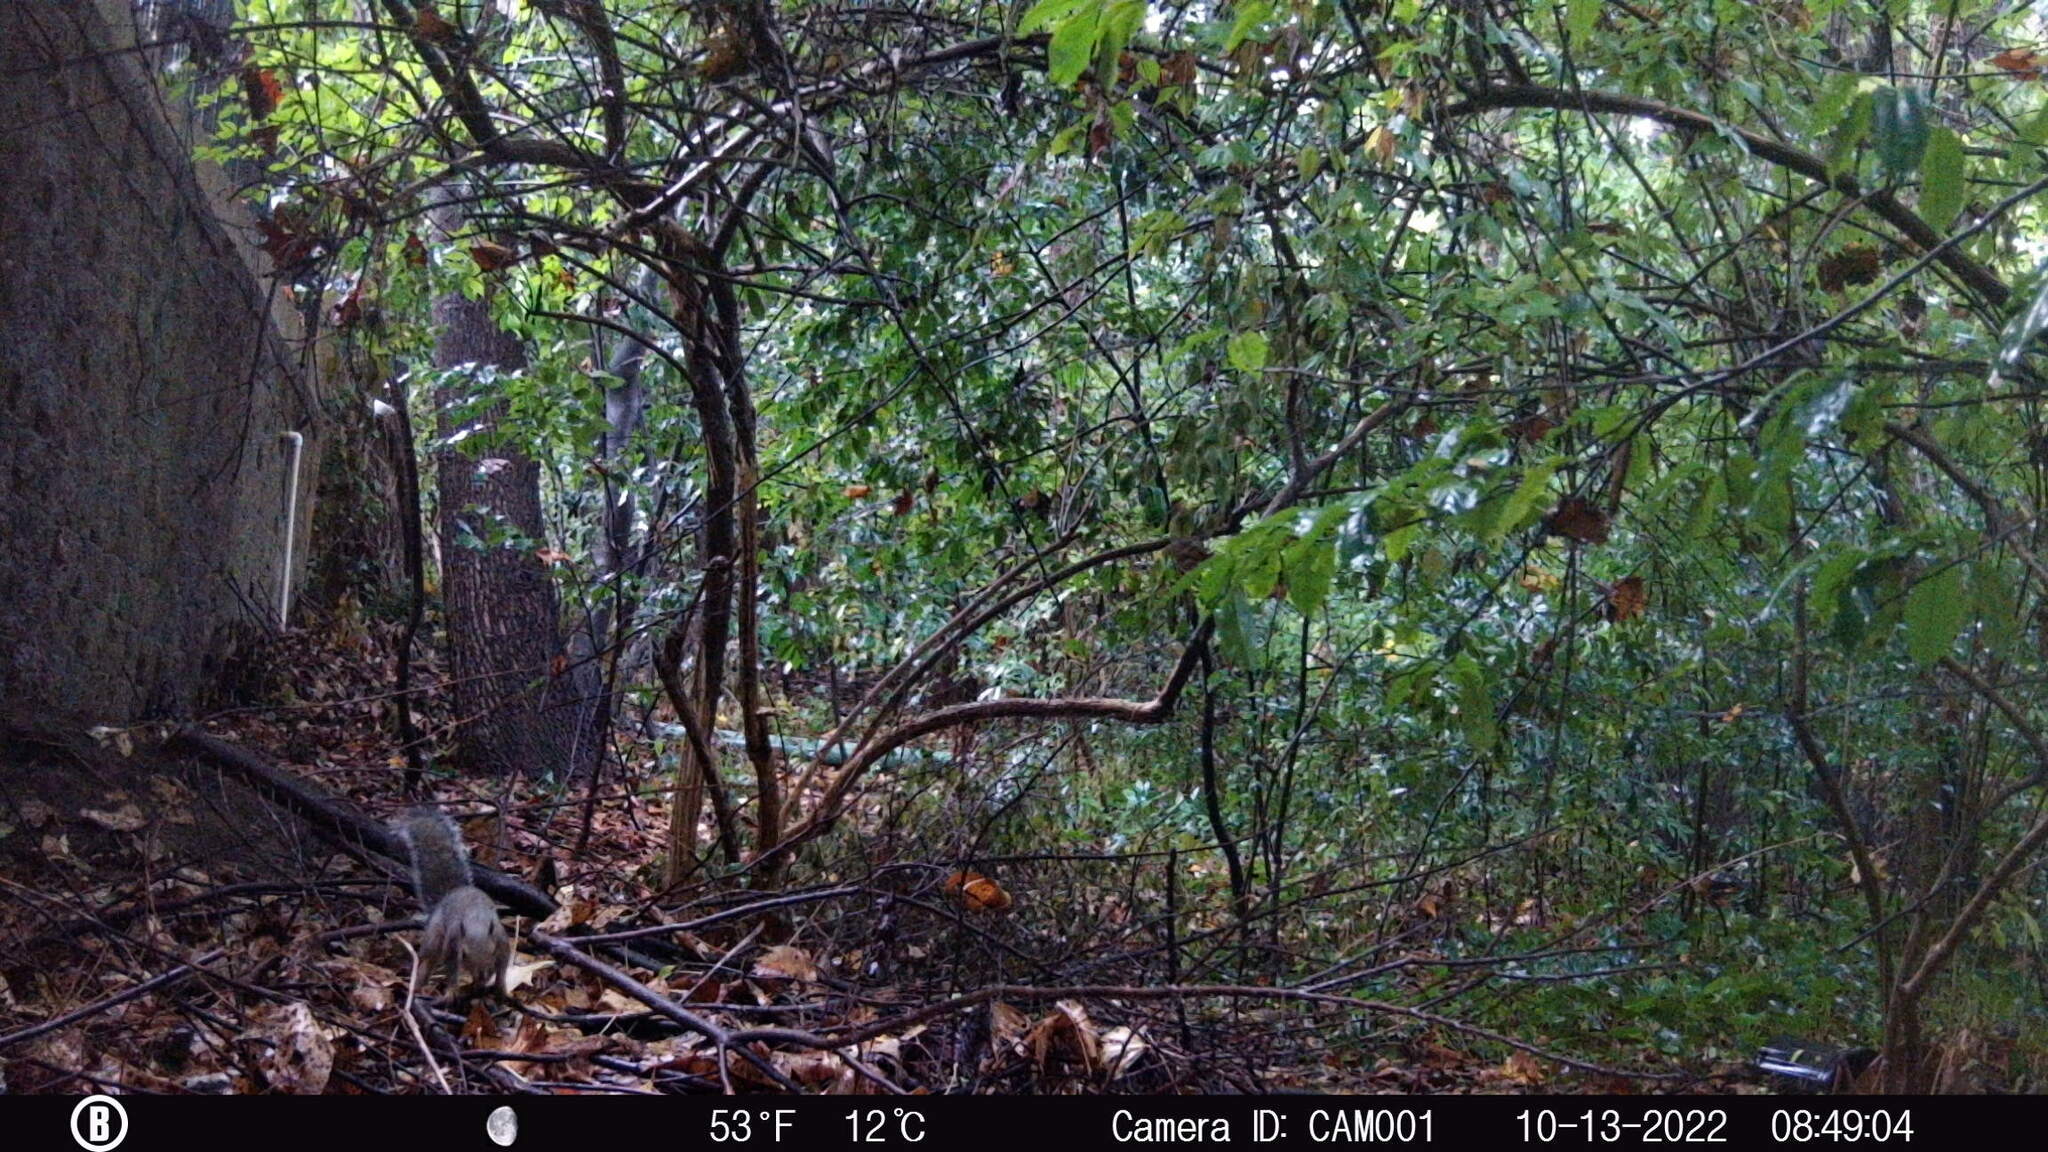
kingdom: Animalia
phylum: Chordata
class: Mammalia
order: Rodentia
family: Sciuridae
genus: Sciurus
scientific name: Sciurus carolinensis
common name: Eastern gray squirrel
